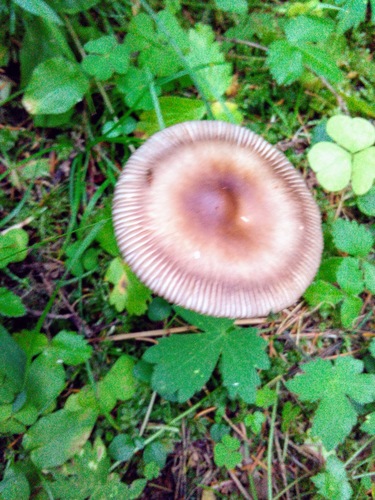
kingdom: Fungi
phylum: Basidiomycota
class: Agaricomycetes
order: Agaricales
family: Amanitaceae
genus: Amanita
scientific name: Amanita fulva
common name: Tawny grisette
